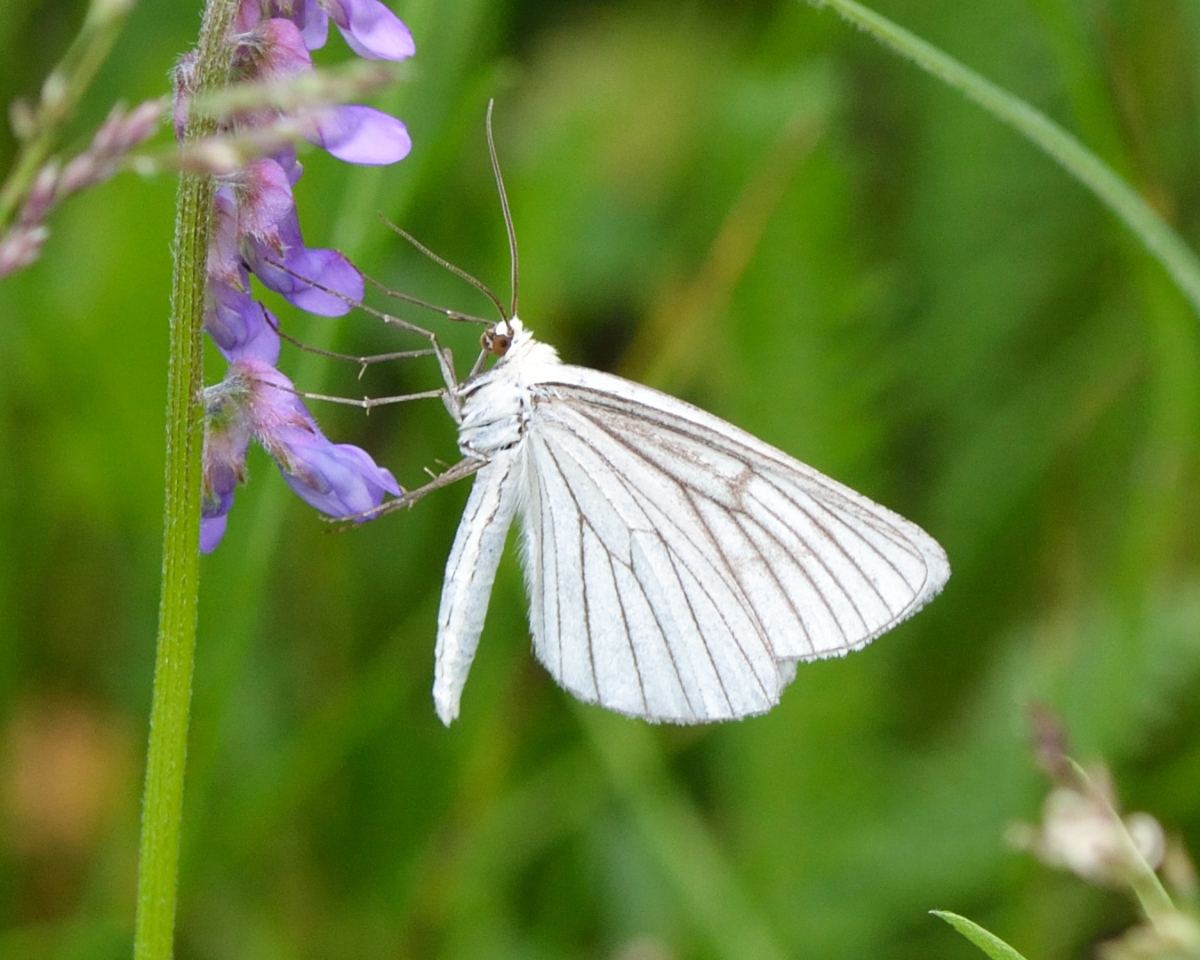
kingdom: Animalia
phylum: Arthropoda
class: Insecta
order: Lepidoptera
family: Geometridae
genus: Siona
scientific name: Siona lineata
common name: Black-veined moth
